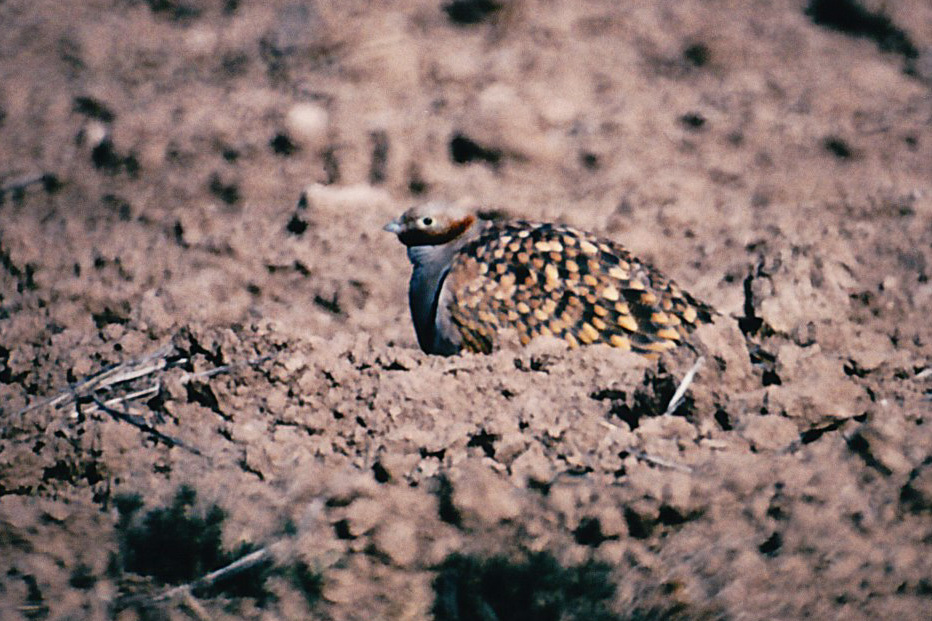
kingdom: Animalia
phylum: Chordata
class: Aves
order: Pteroclidiformes
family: Pteroclididae
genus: Pterocles
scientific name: Pterocles orientalis
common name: Black-bellied sandgrouse
